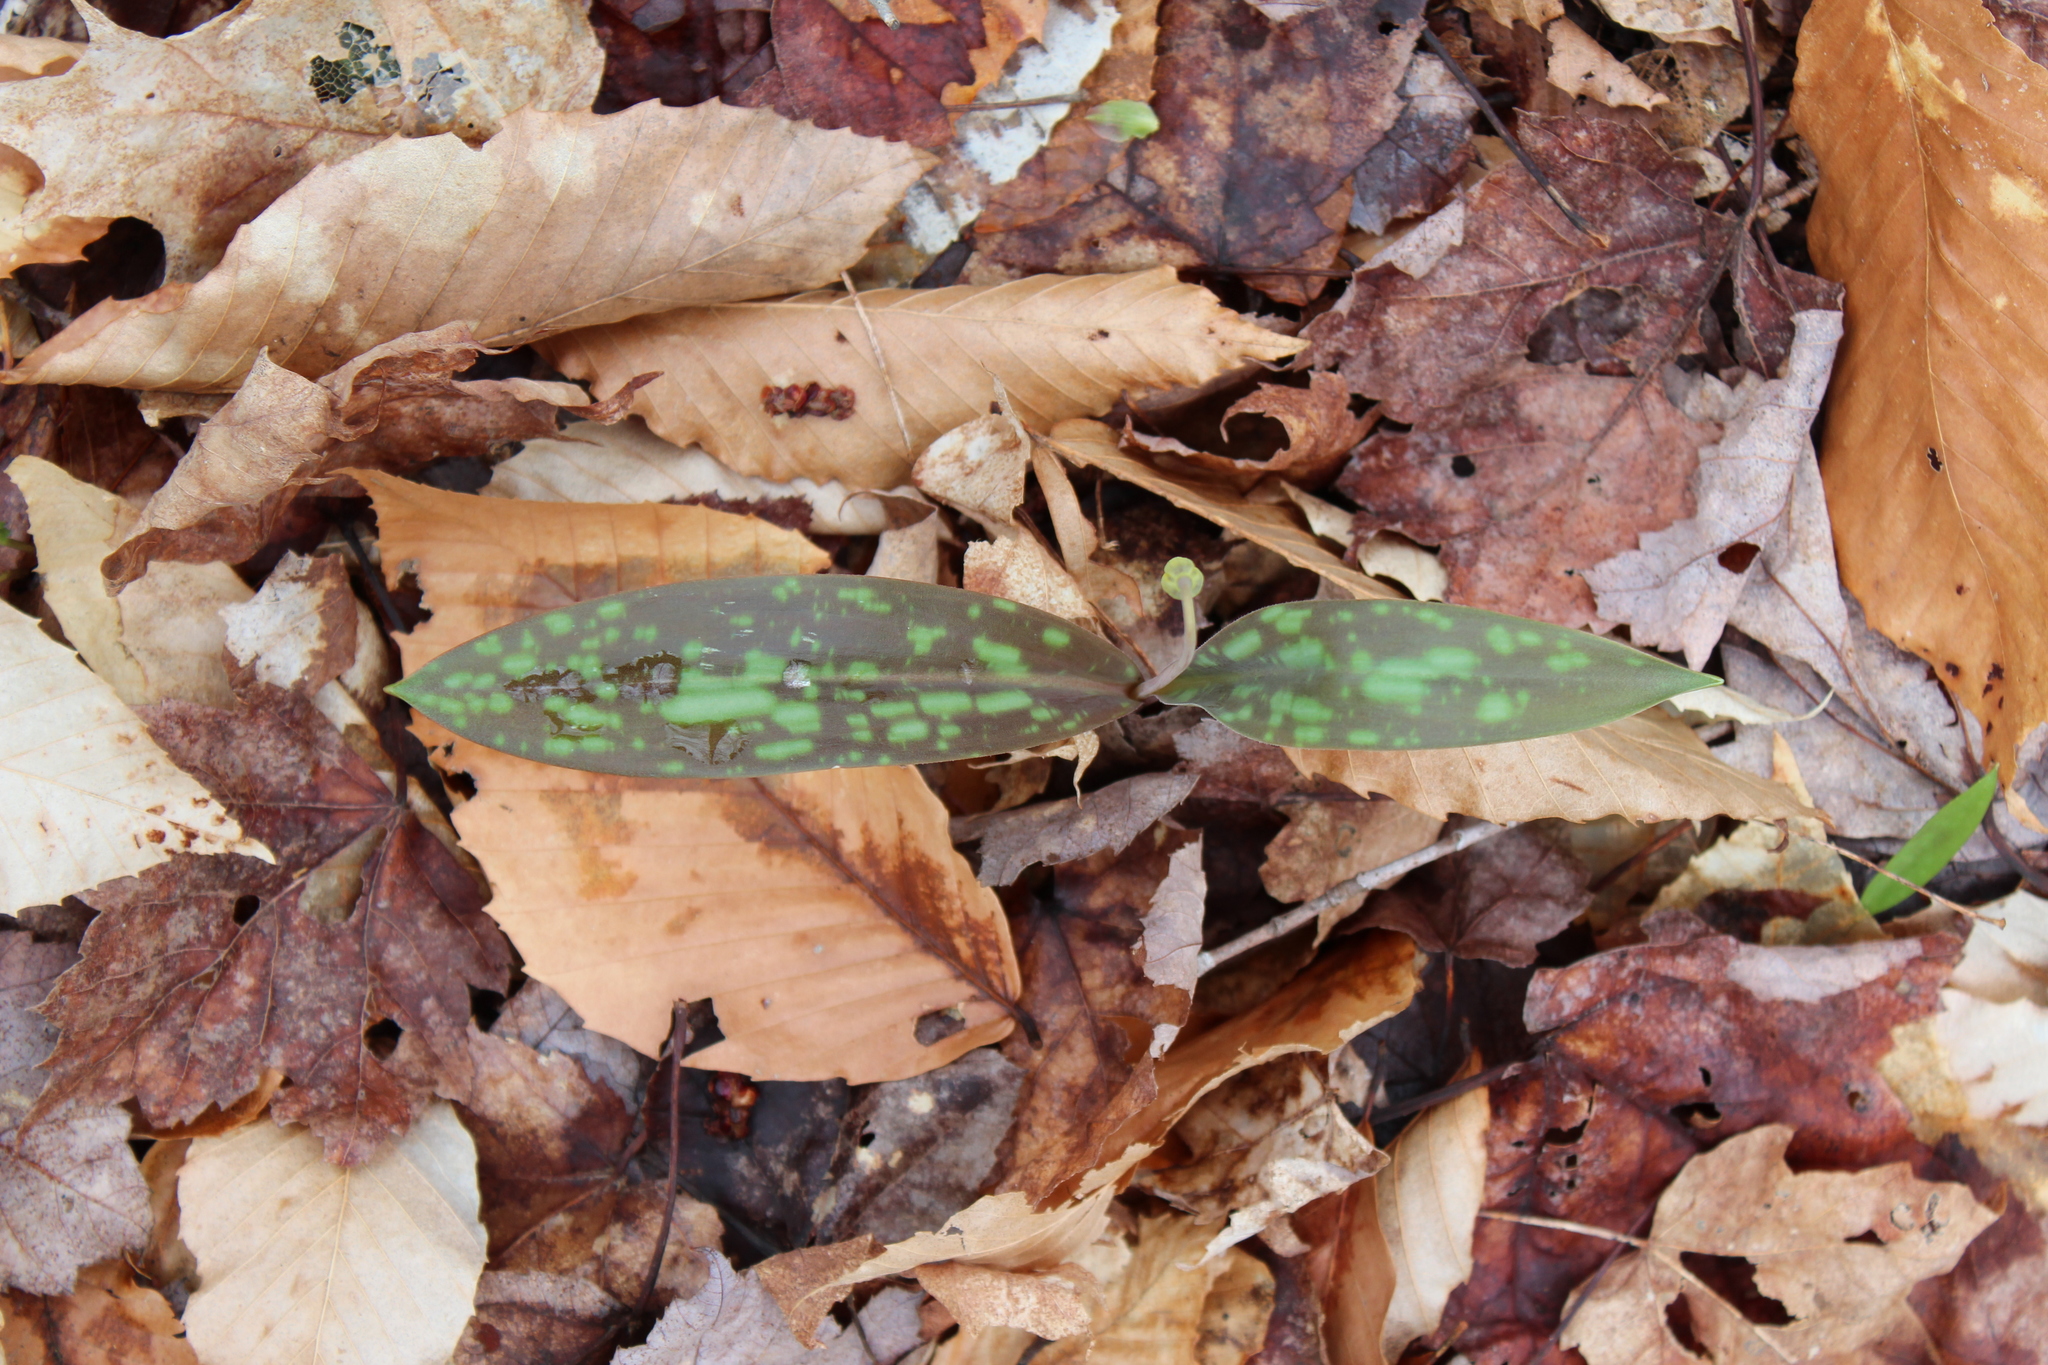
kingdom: Plantae
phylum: Tracheophyta
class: Liliopsida
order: Liliales
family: Liliaceae
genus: Erythronium
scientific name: Erythronium americanum
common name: Yellow adder's-tongue
